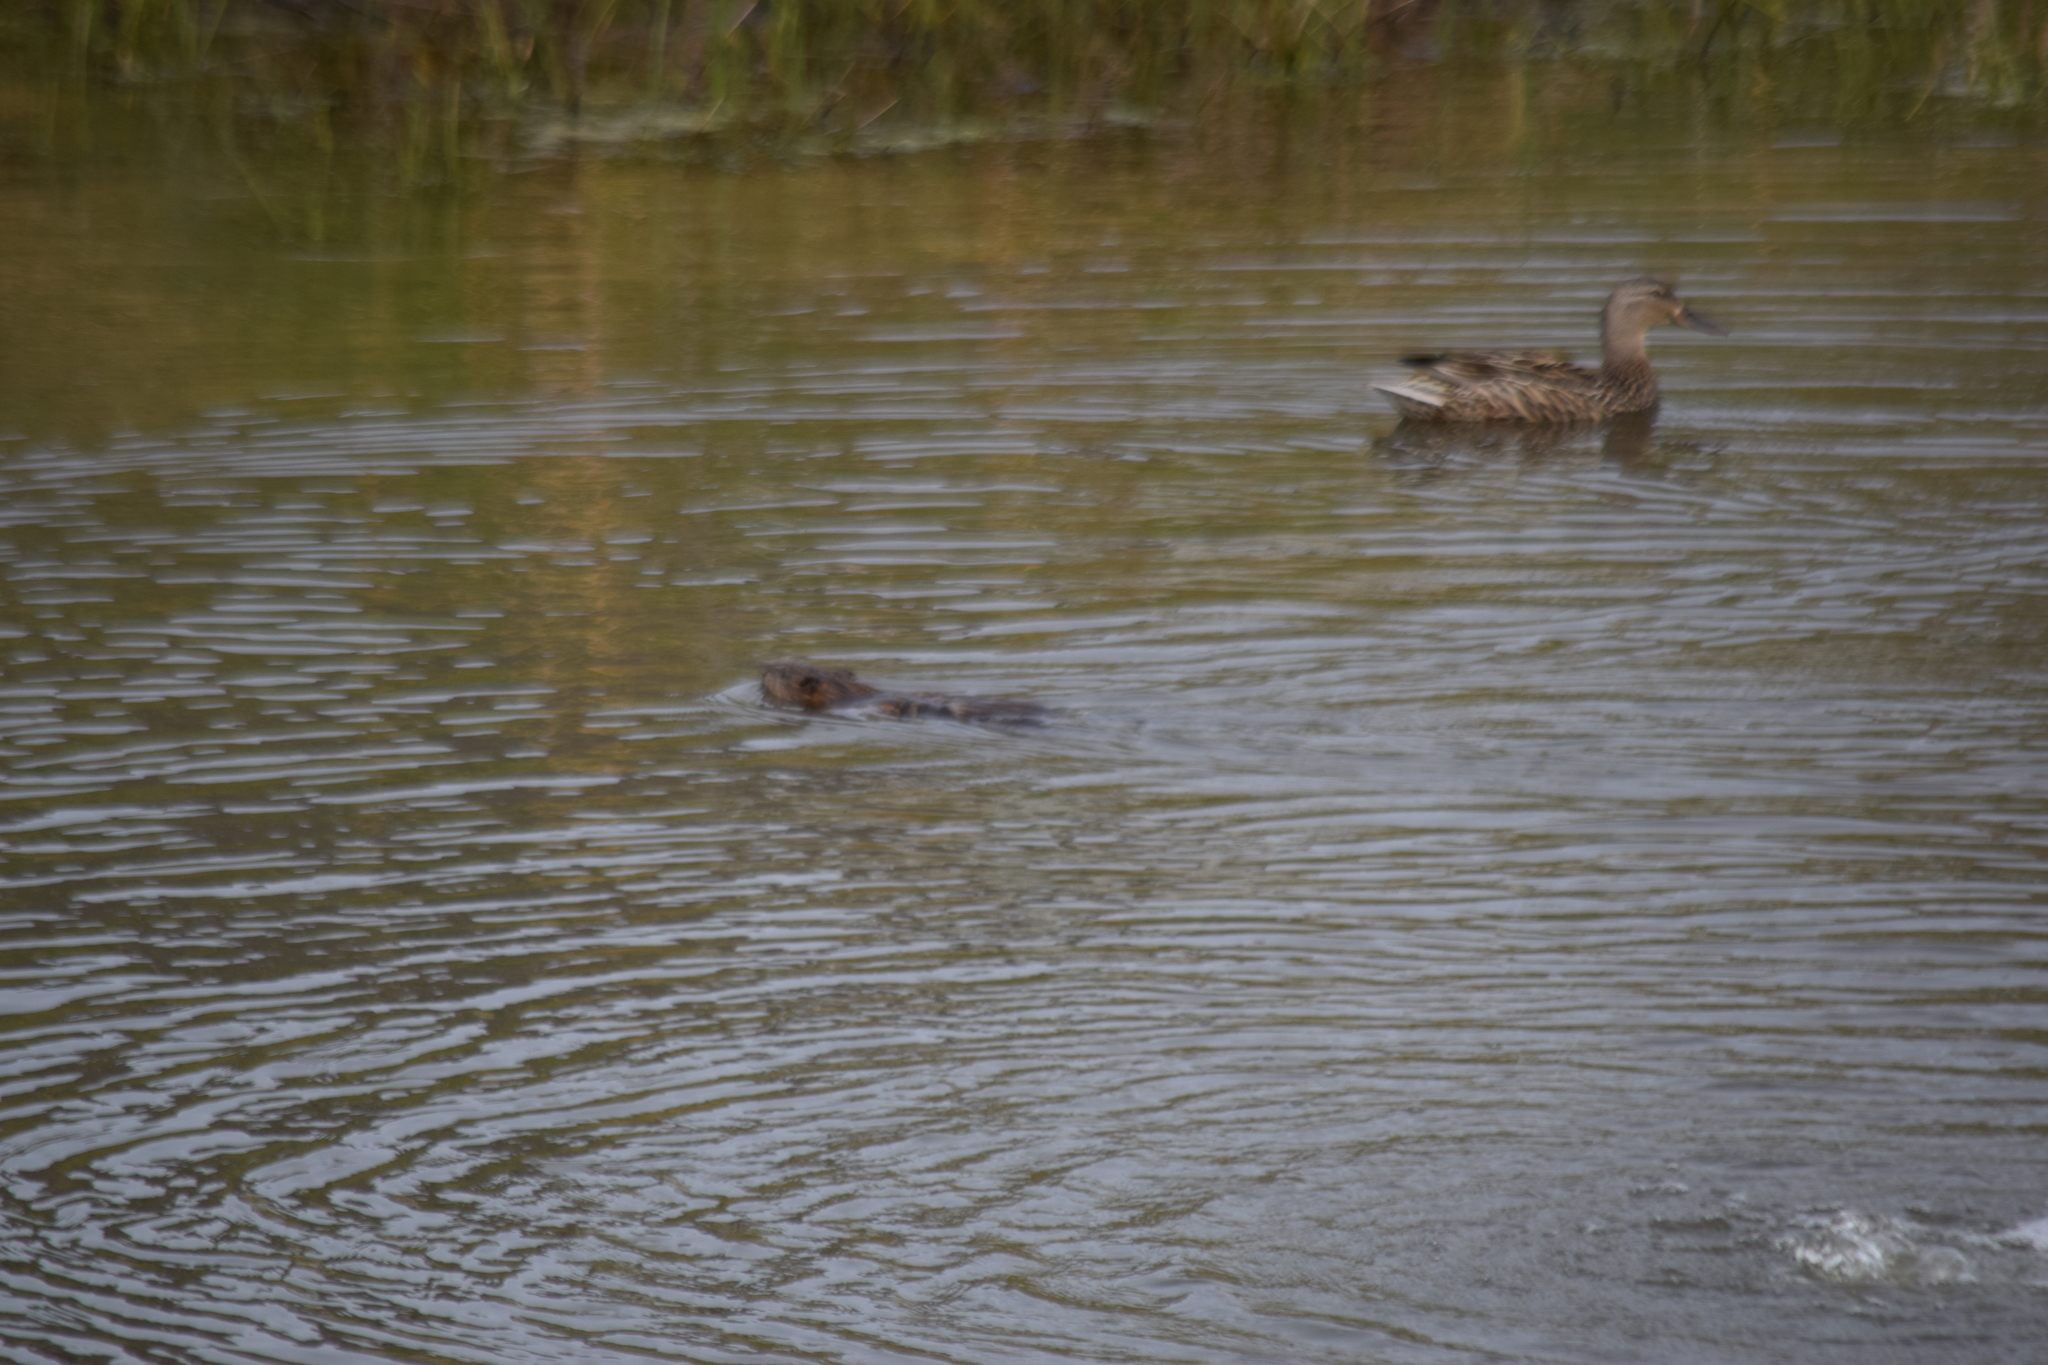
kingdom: Animalia
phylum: Chordata
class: Mammalia
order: Rodentia
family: Cricetidae
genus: Ondatra
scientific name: Ondatra zibethicus
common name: Muskrat
